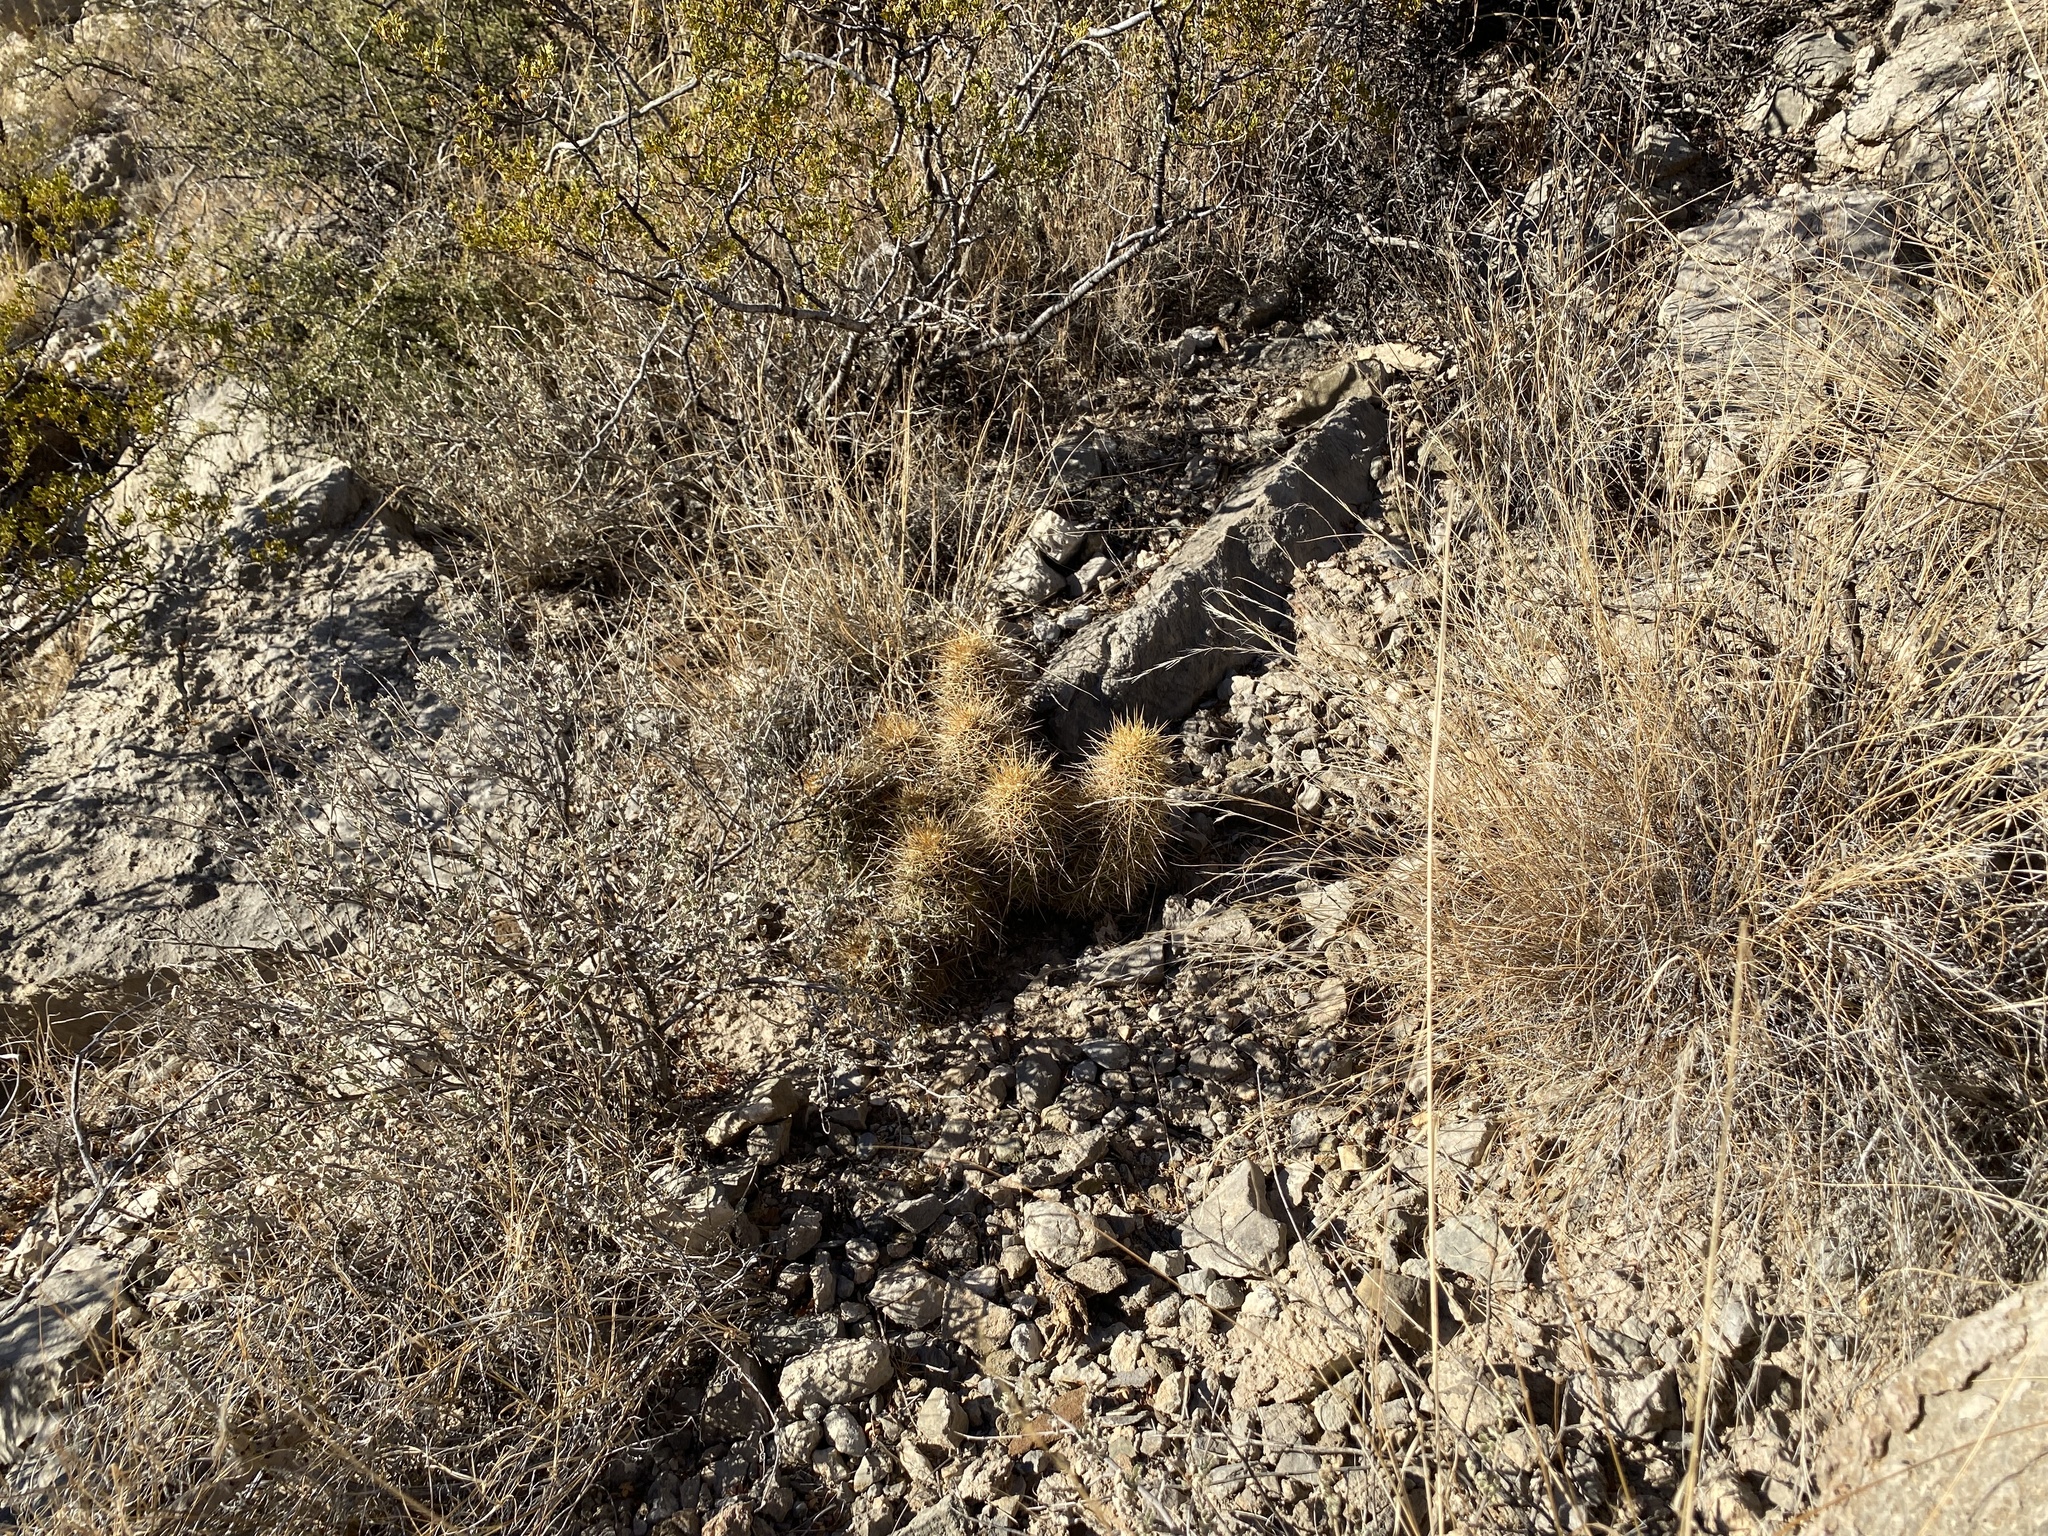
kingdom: Plantae
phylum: Tracheophyta
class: Magnoliopsida
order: Caryophyllales
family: Cactaceae
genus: Echinocereus
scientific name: Echinocereus coccineus
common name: Scarlet hedgehog cactus
